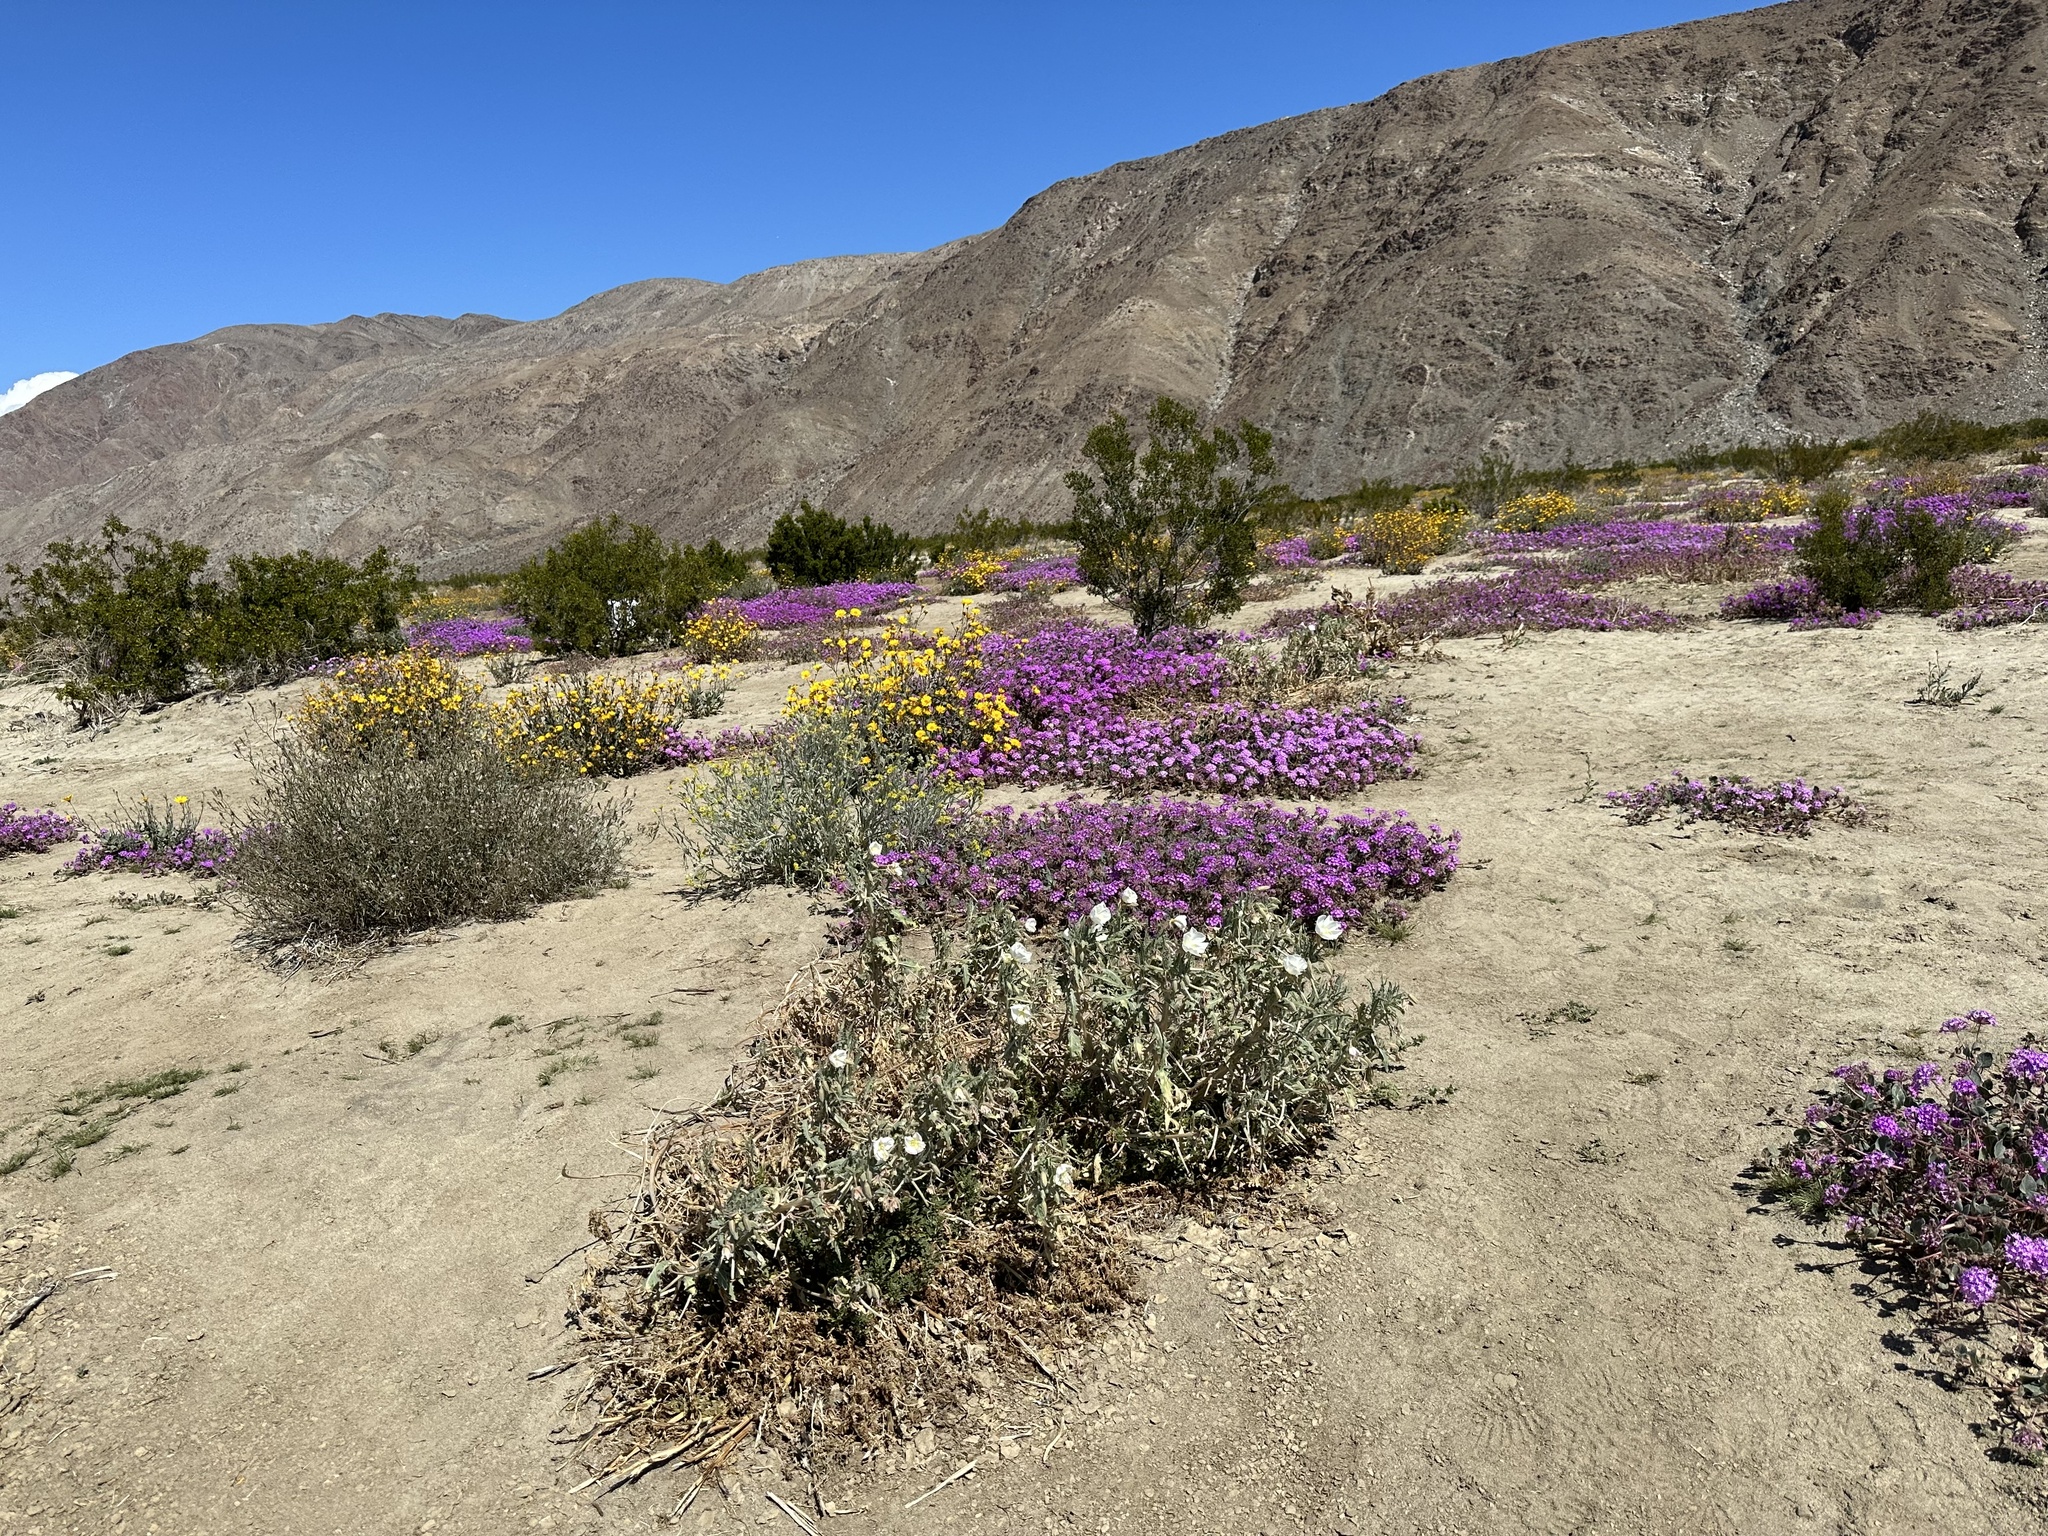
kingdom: Plantae
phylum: Tracheophyta
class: Magnoliopsida
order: Myrtales
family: Onagraceae
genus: Oenothera
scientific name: Oenothera deltoides
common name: Basket evening-primrose
